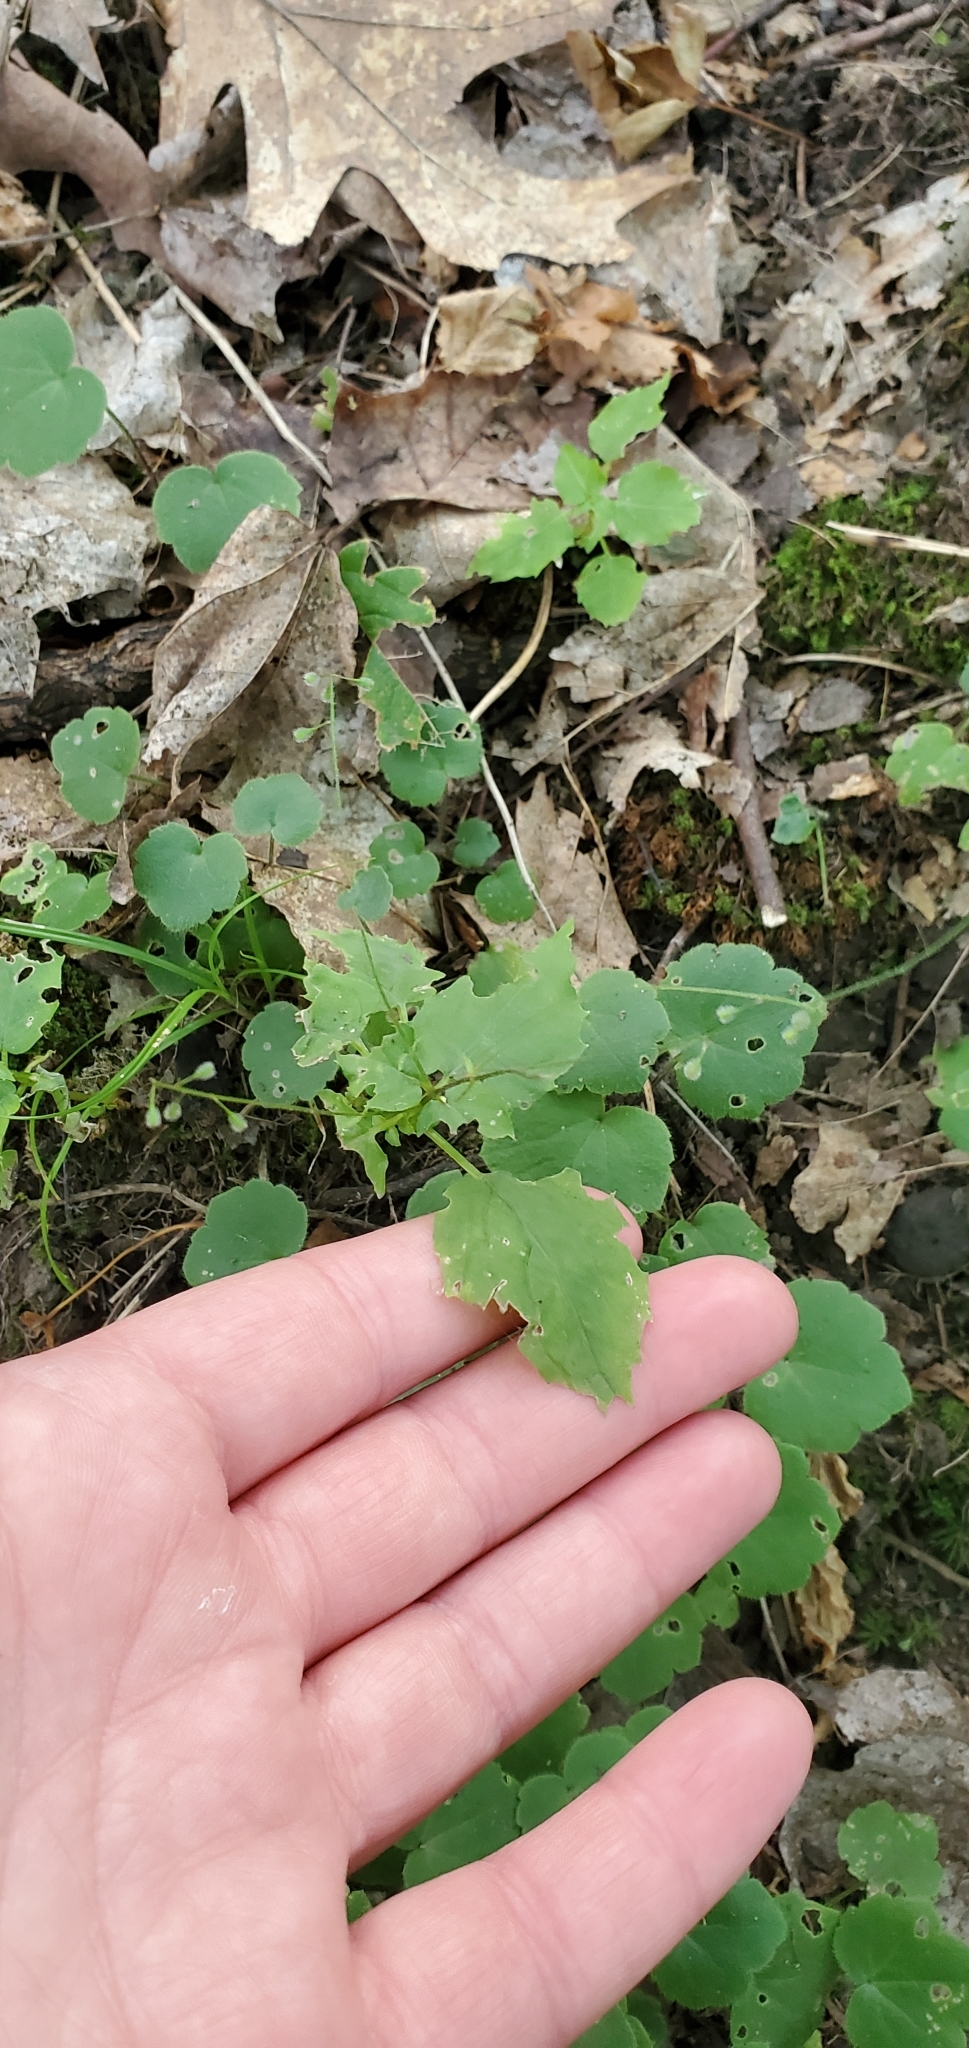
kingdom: Plantae
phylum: Tracheophyta
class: Magnoliopsida
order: Myrtales
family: Onagraceae
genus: Circaea
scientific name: Circaea alpina
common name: Alpine enchanter's-nightshade
